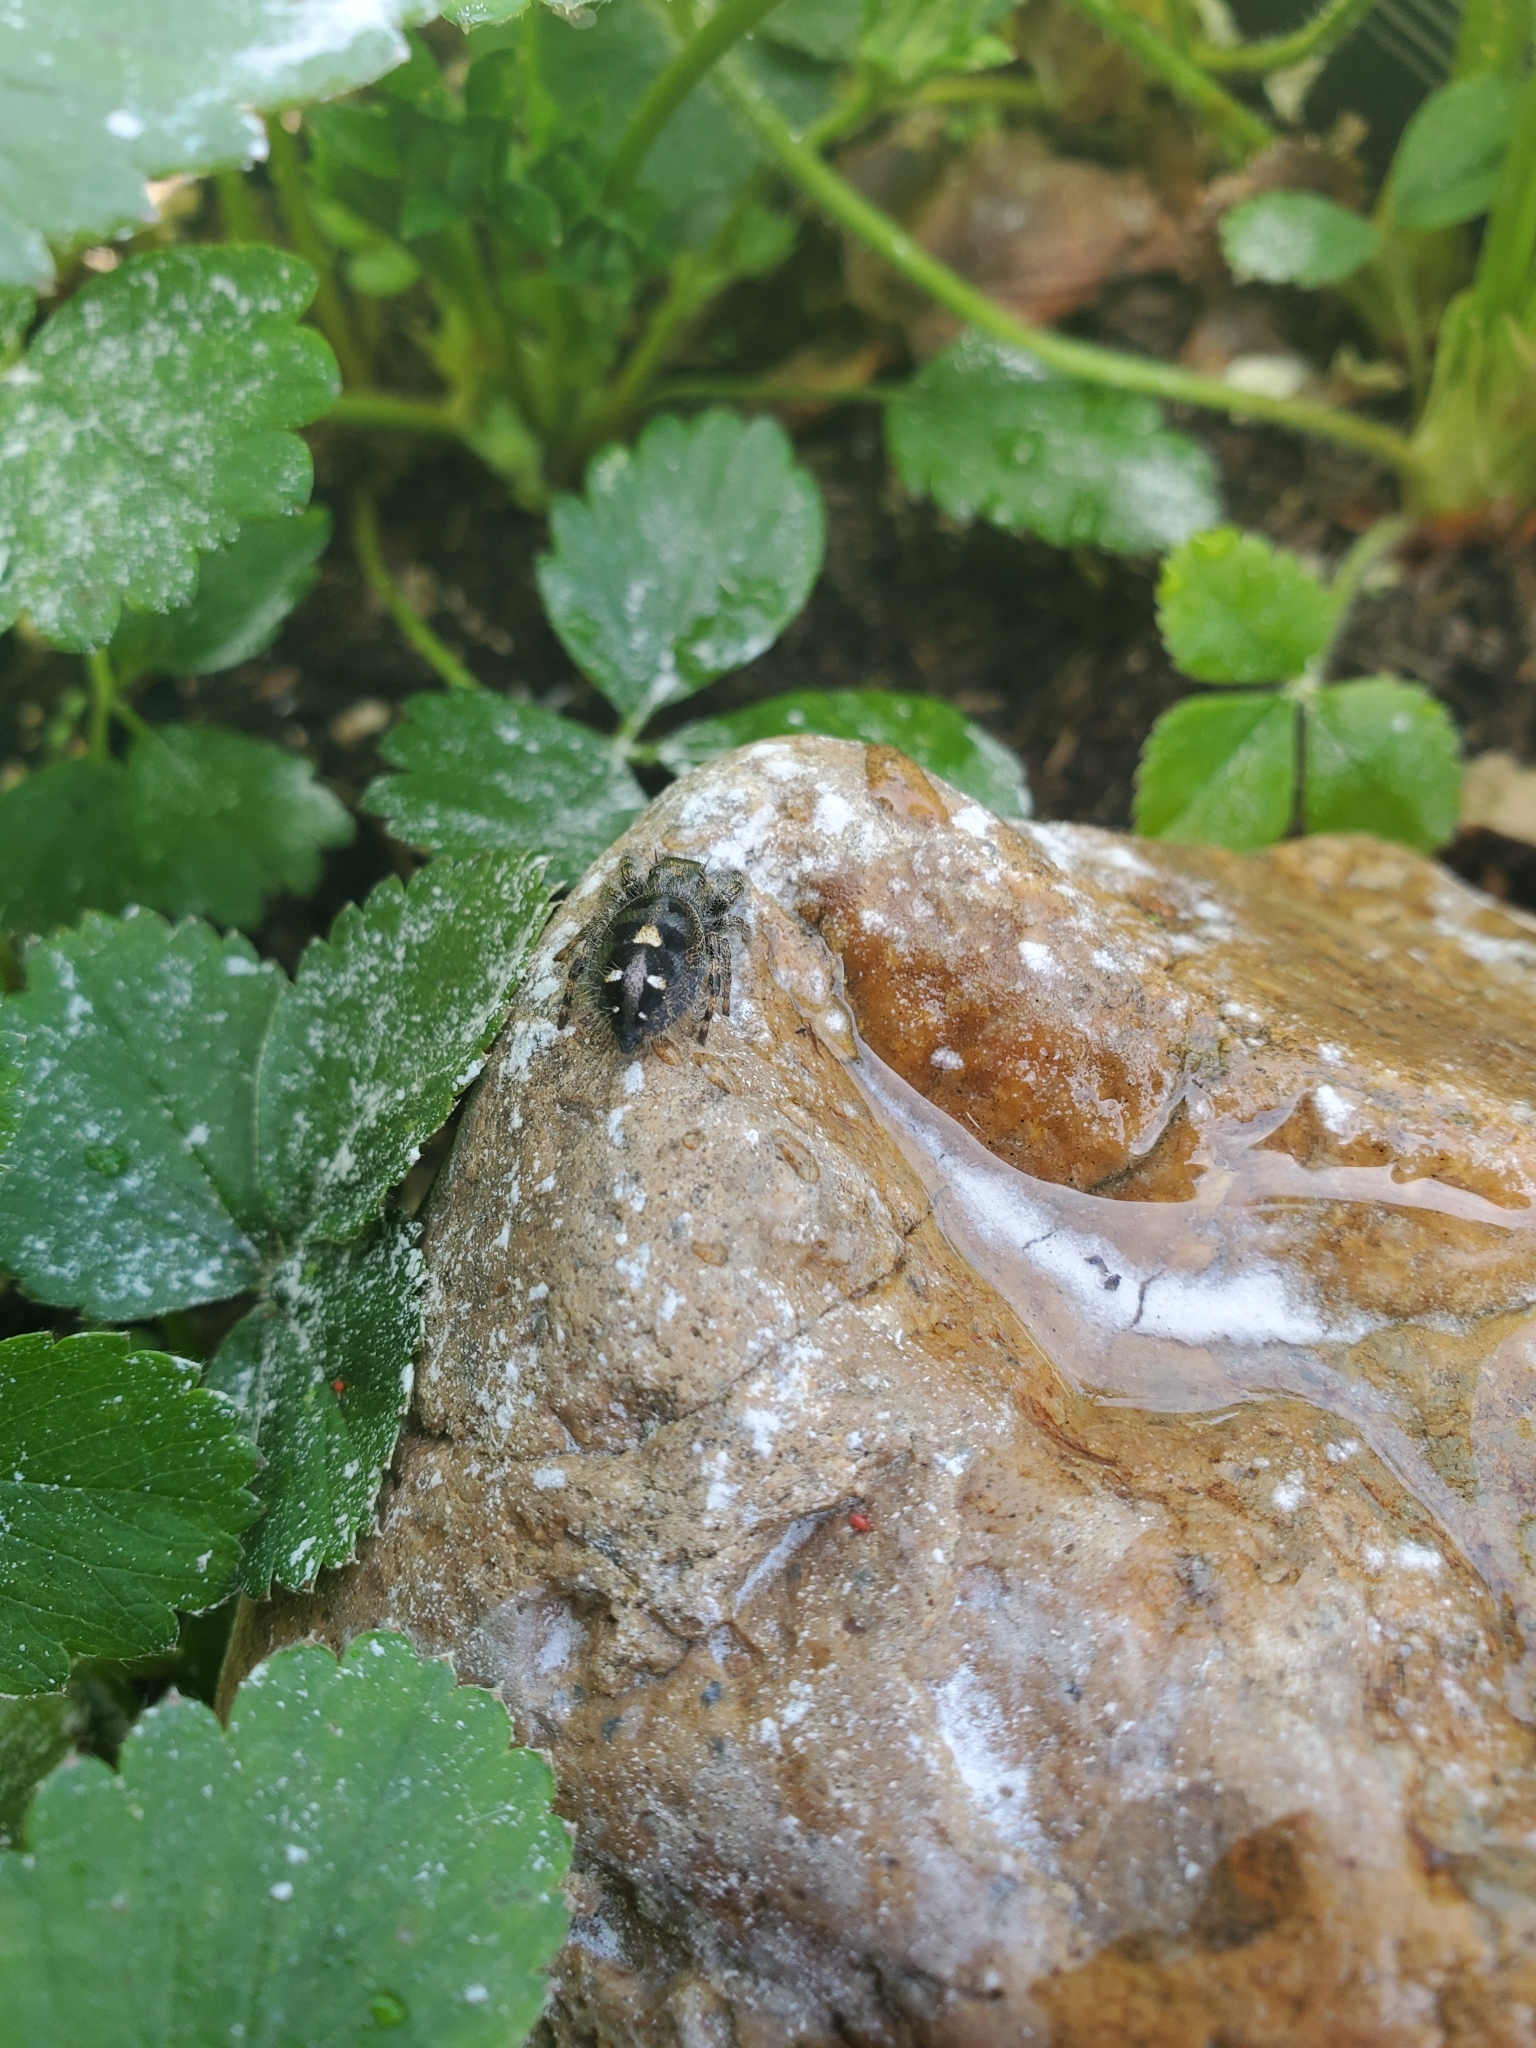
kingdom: Animalia
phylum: Arthropoda
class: Arachnida
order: Araneae
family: Salticidae
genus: Phidippus
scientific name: Phidippus audax
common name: Bold jumper
